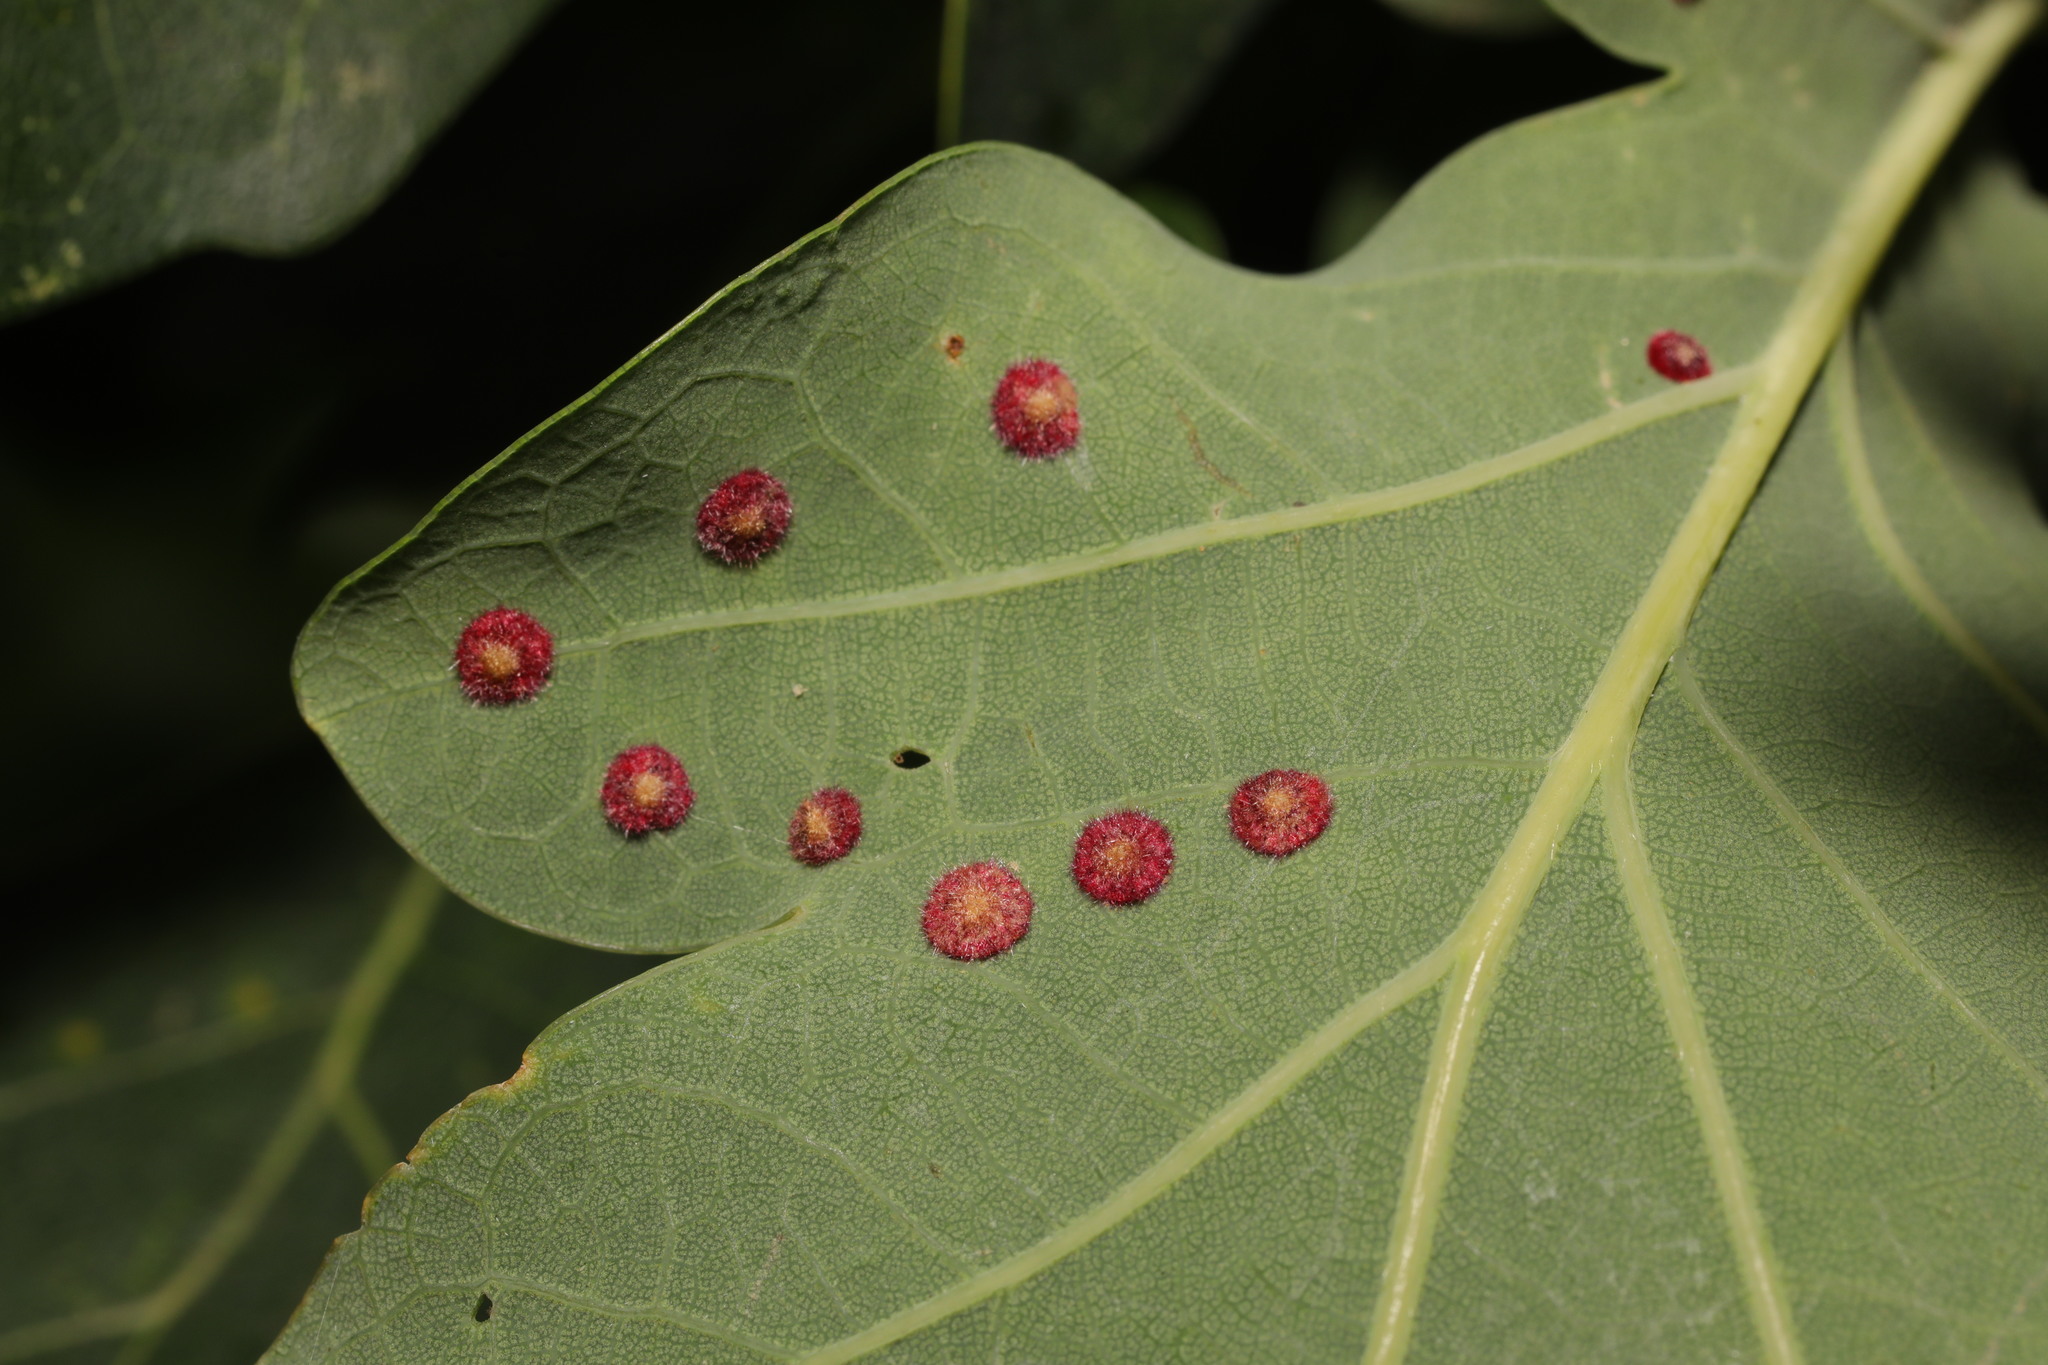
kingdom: Animalia
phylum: Arthropoda
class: Insecta
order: Hymenoptera
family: Cynipidae
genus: Neuroterus
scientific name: Neuroterus quercusbaccarum
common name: Common spangle gall
